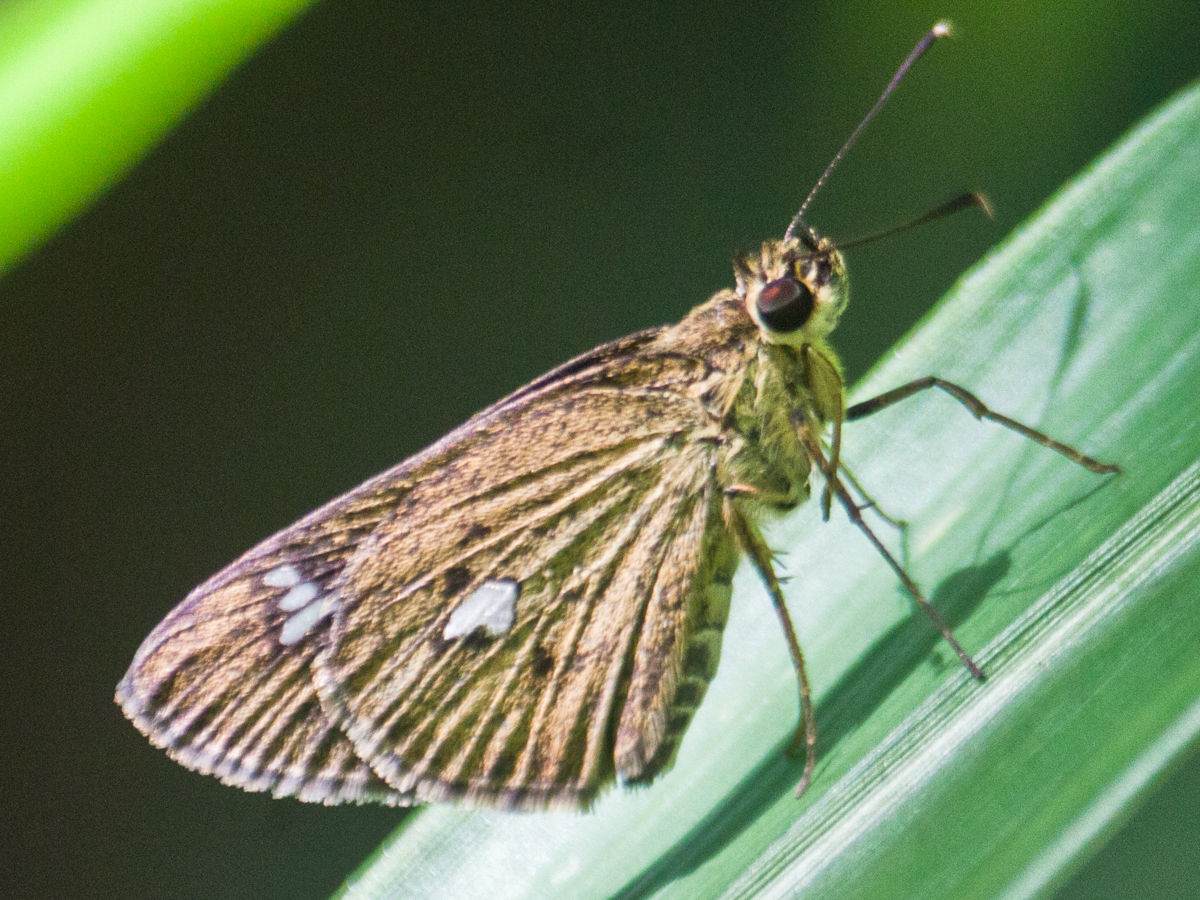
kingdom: Animalia
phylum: Arthropoda
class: Insecta
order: Lepidoptera
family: Hesperiidae
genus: Scobura
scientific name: Scobura phiditia
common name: Malay forest bob
